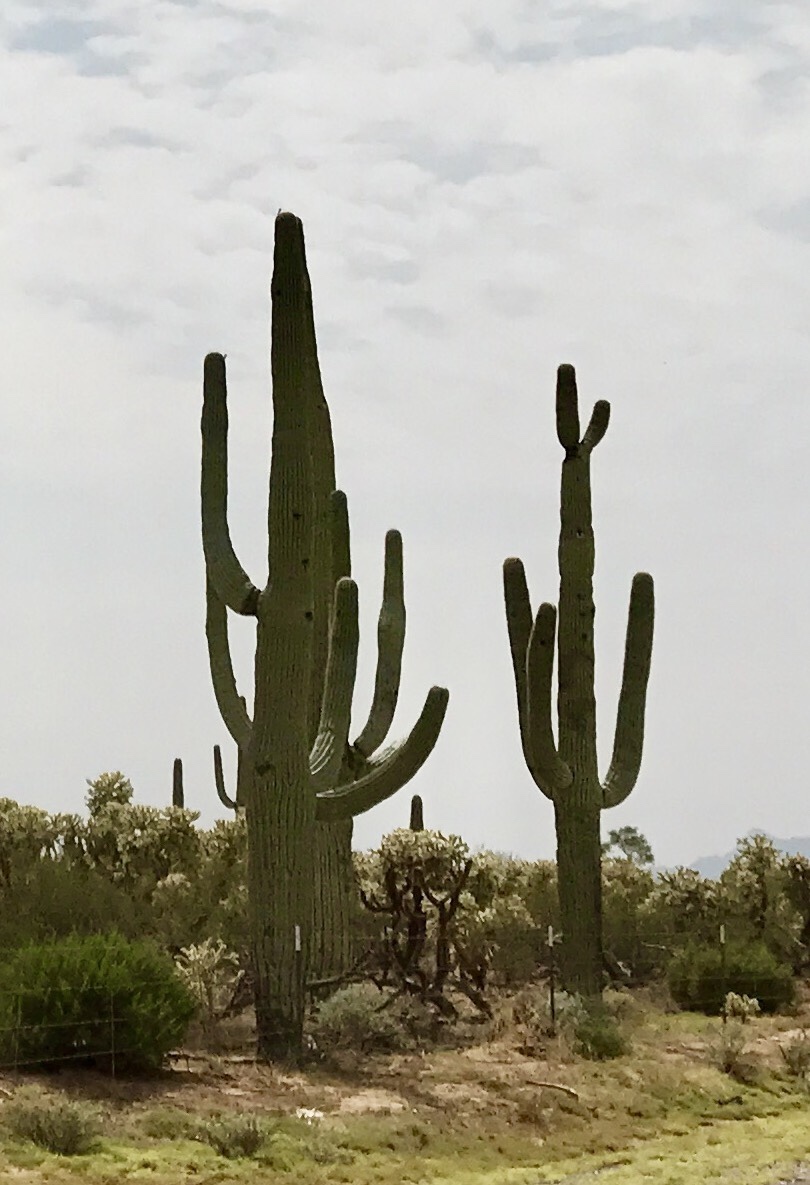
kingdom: Plantae
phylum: Tracheophyta
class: Magnoliopsida
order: Caryophyllales
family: Cactaceae
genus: Carnegiea
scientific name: Carnegiea gigantea
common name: Saguaro
